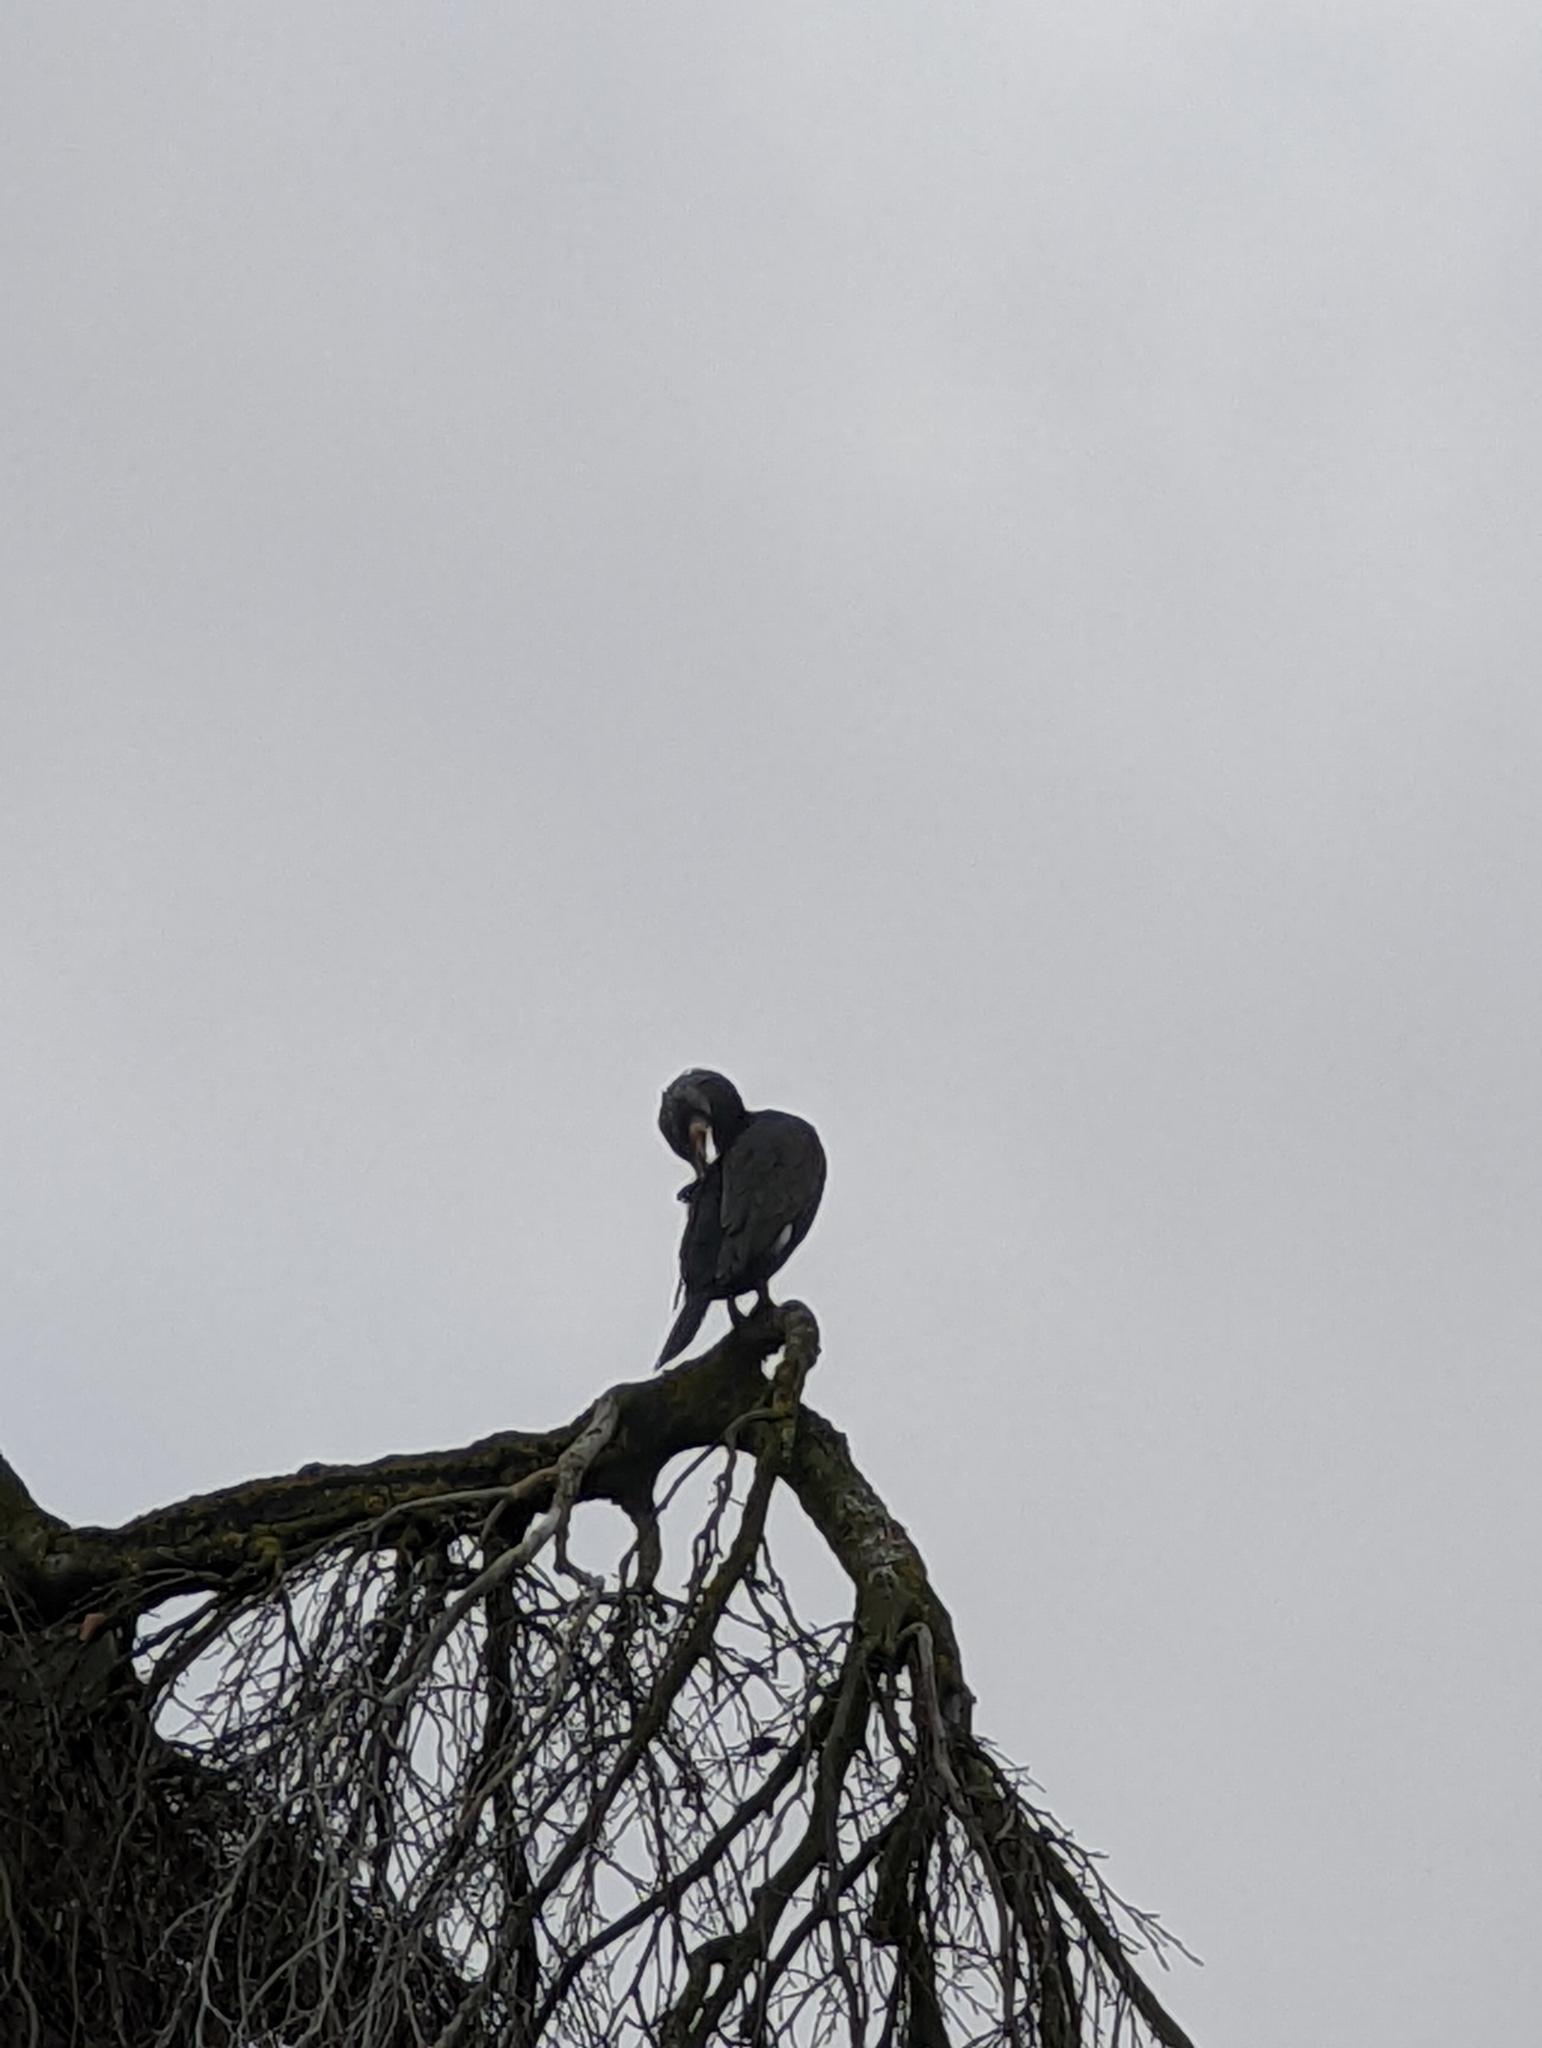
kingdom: Animalia
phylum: Chordata
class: Aves
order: Suliformes
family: Phalacrocoracidae
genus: Phalacrocorax
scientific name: Phalacrocorax carbo
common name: Great cormorant
